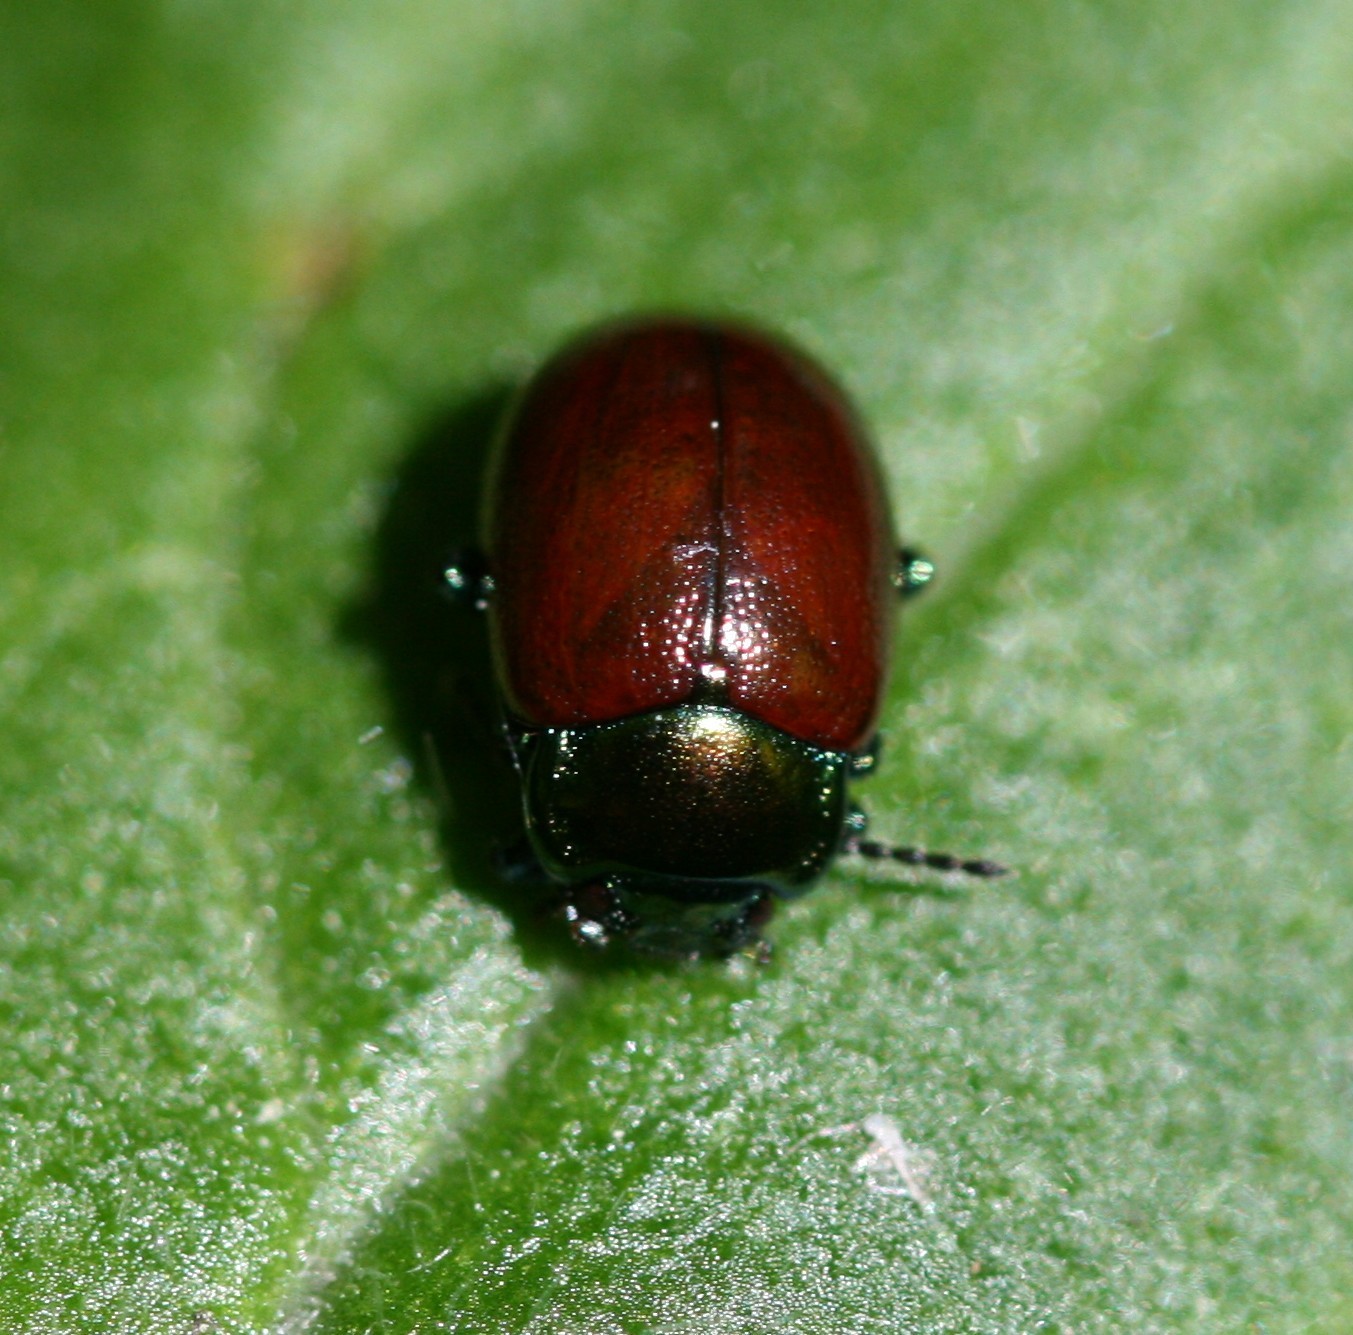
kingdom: Animalia
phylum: Arthropoda
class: Insecta
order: Coleoptera
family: Chrysomelidae
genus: Chrysomela
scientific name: Chrysomela polita
